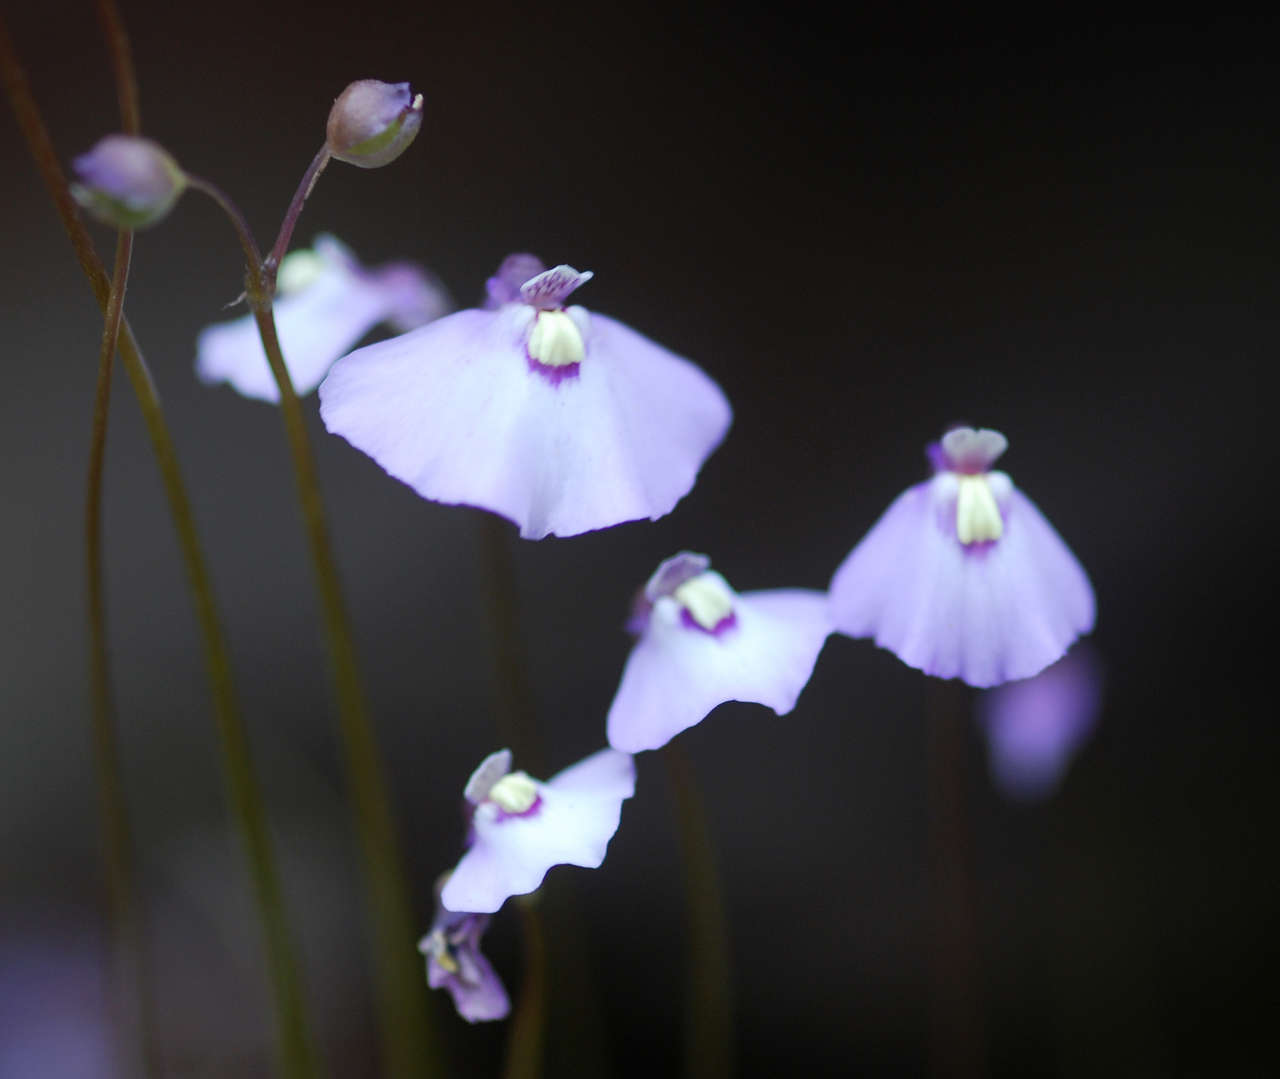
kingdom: Plantae
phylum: Tracheophyta
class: Magnoliopsida
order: Lamiales
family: Lentibulariaceae
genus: Utricularia
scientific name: Utricularia grampiana
